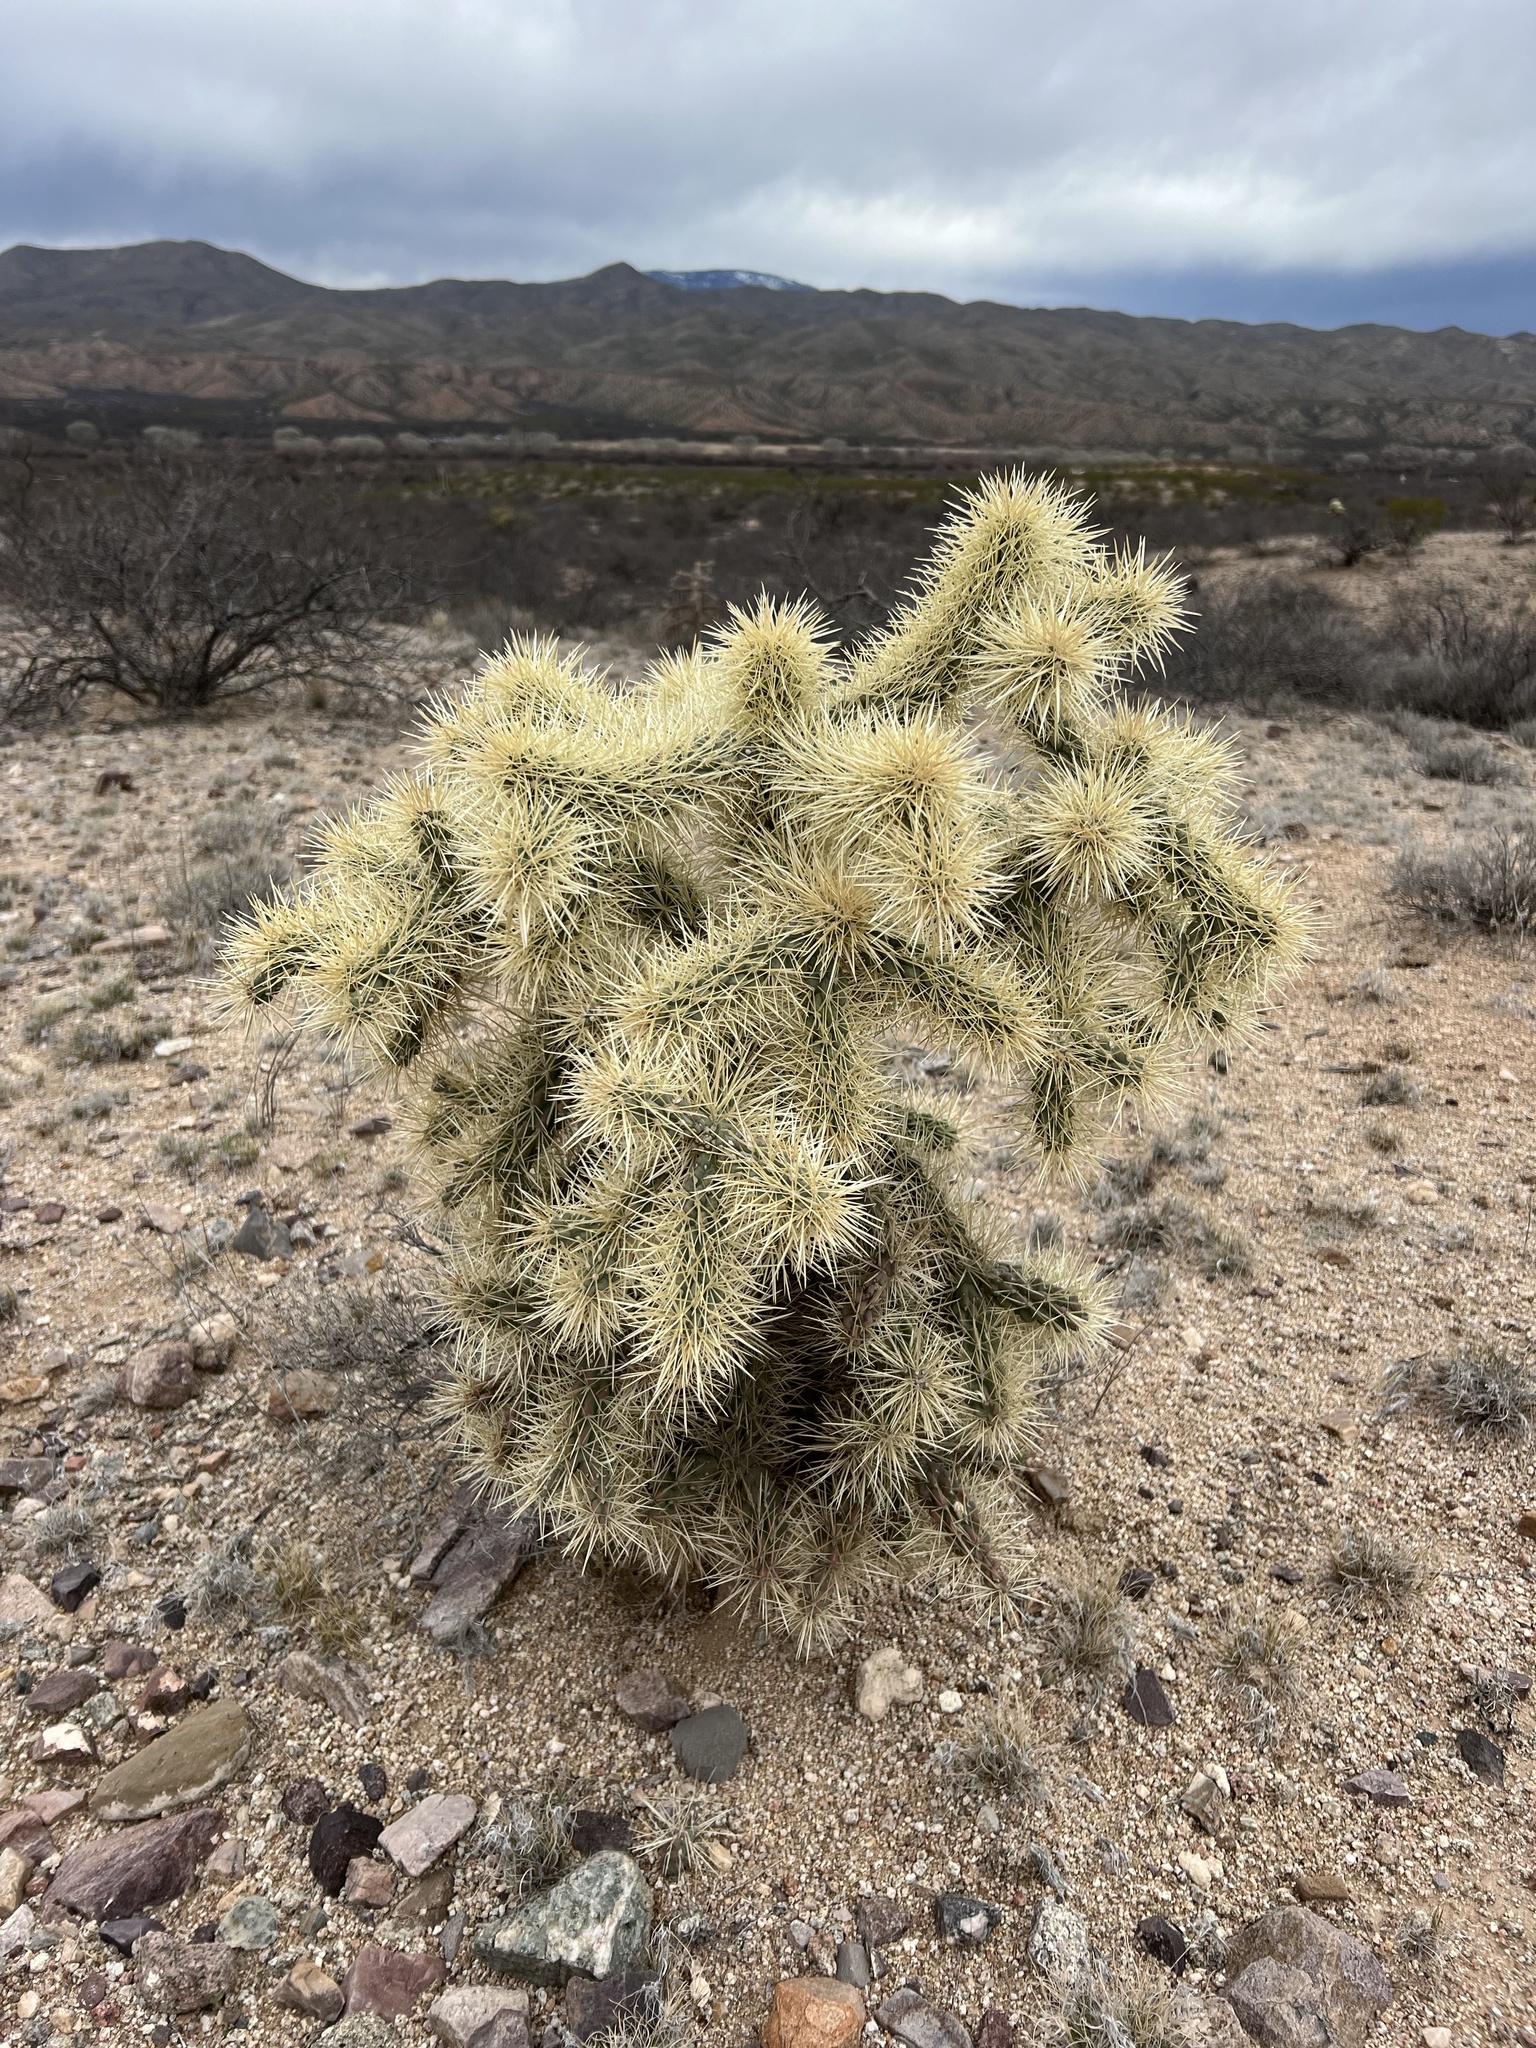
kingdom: Plantae
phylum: Tracheophyta
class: Magnoliopsida
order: Caryophyllales
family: Cactaceae
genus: Cylindropuntia
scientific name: Cylindropuntia fulgida
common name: Jumping cholla
